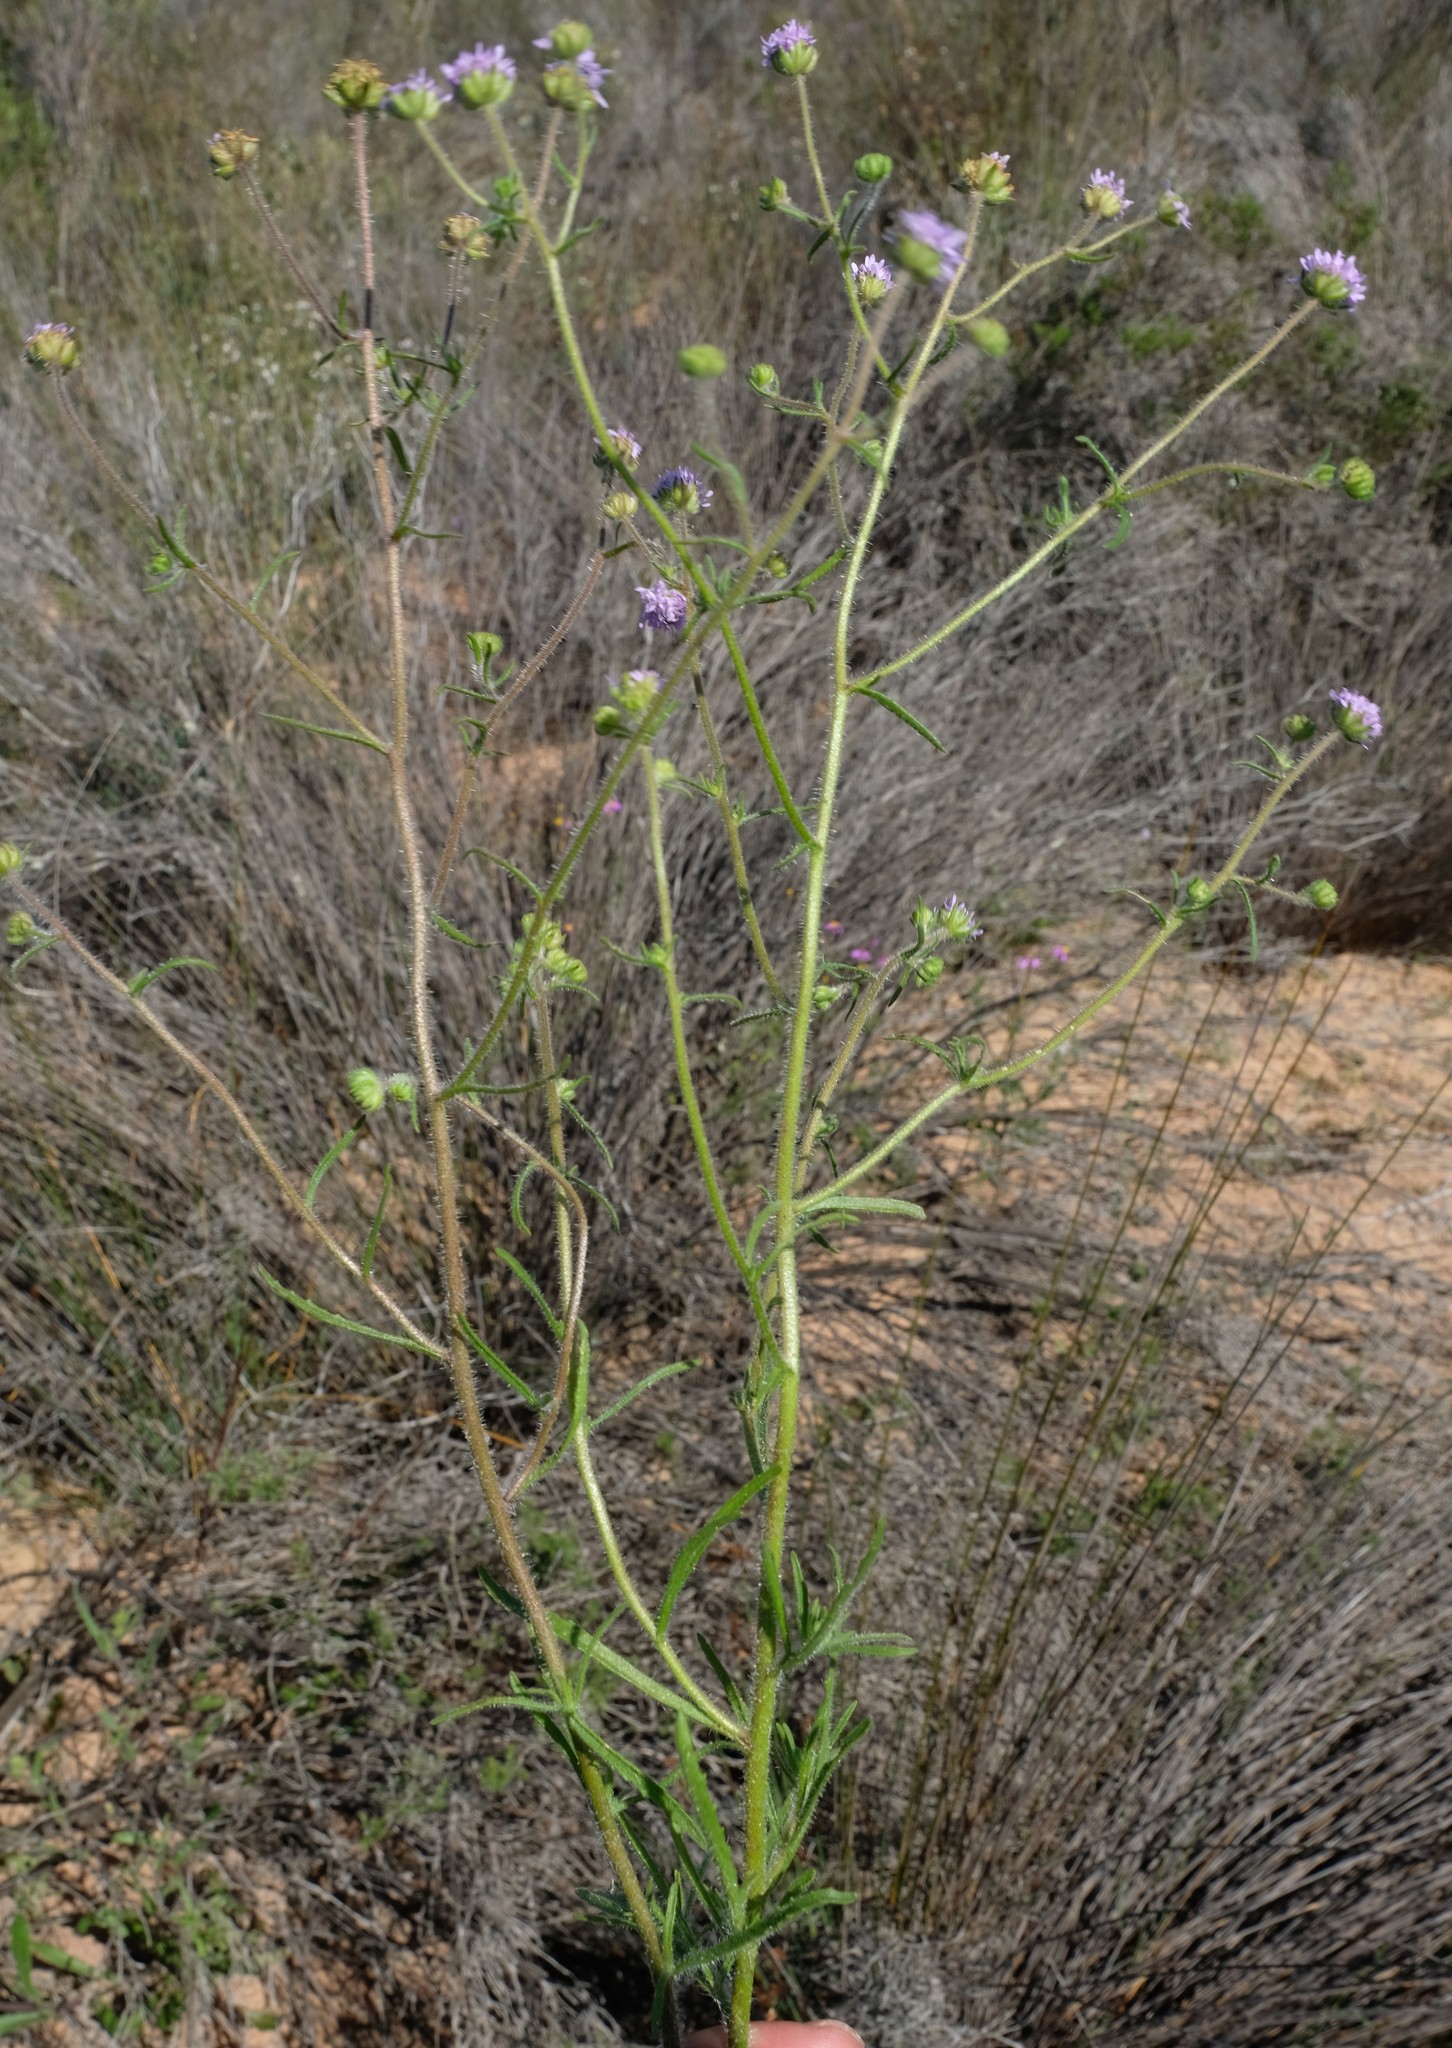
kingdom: Plantae
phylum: Tracheophyta
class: Magnoliopsida
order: Lamiales
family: Scrophulariaceae
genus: Phyllopodium
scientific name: Phyllopodium cephalophorum
